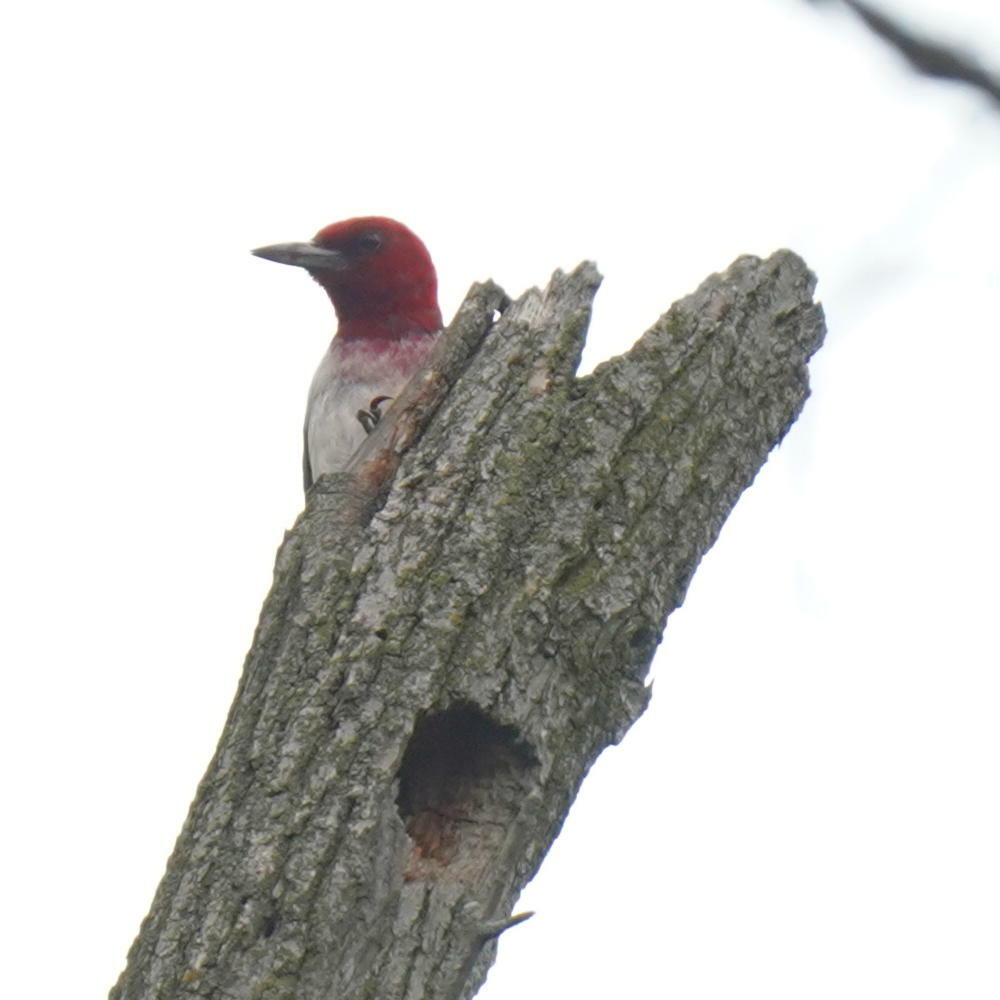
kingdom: Animalia
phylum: Chordata
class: Aves
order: Piciformes
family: Picidae
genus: Melanerpes
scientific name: Melanerpes erythrocephalus
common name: Red-headed woodpecker
